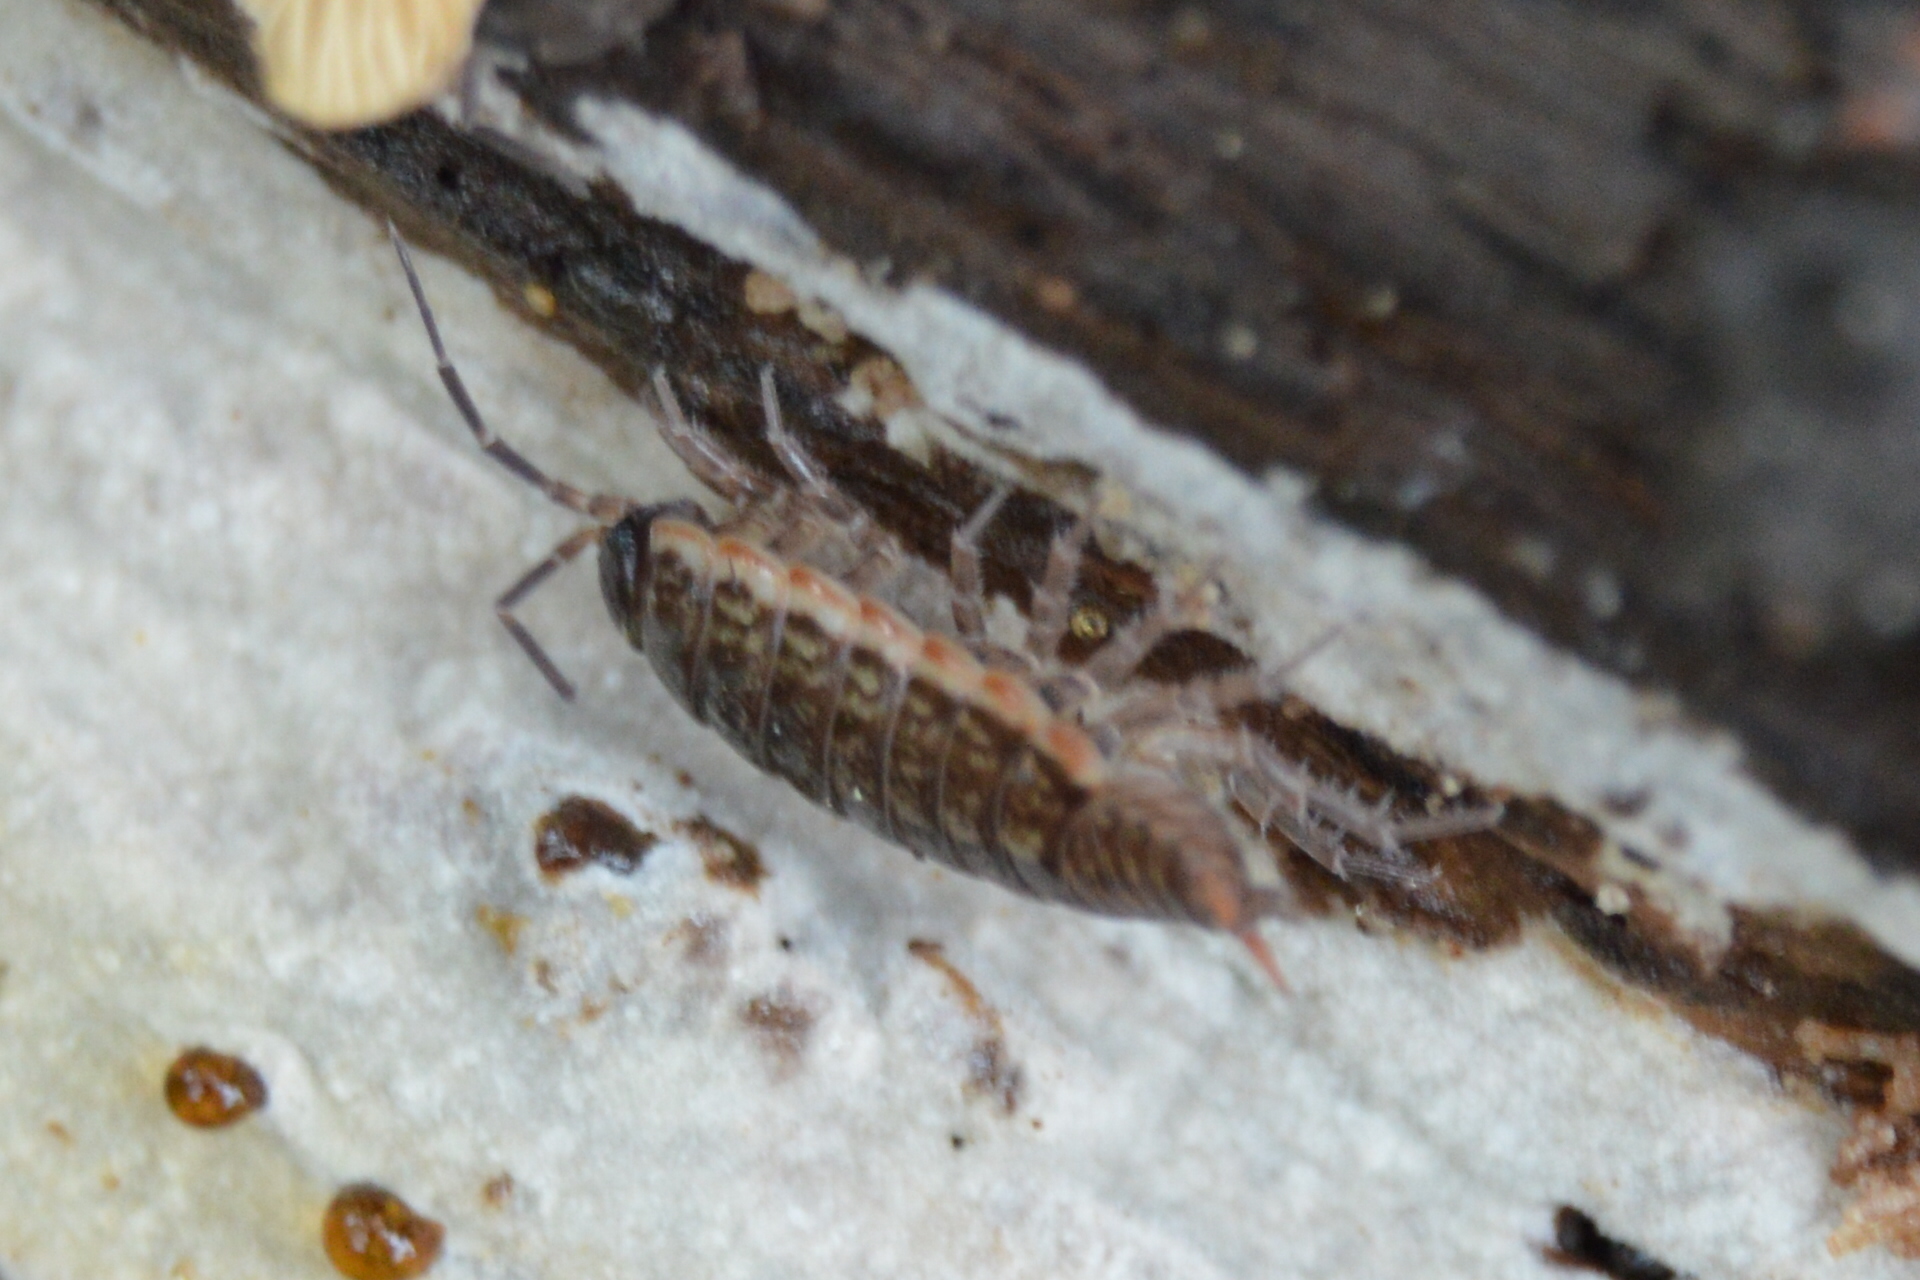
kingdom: Animalia
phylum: Arthropoda
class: Malacostraca
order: Isopoda
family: Philosciidae
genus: Philoscia
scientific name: Philoscia muscorum
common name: Common striped woodlouse
